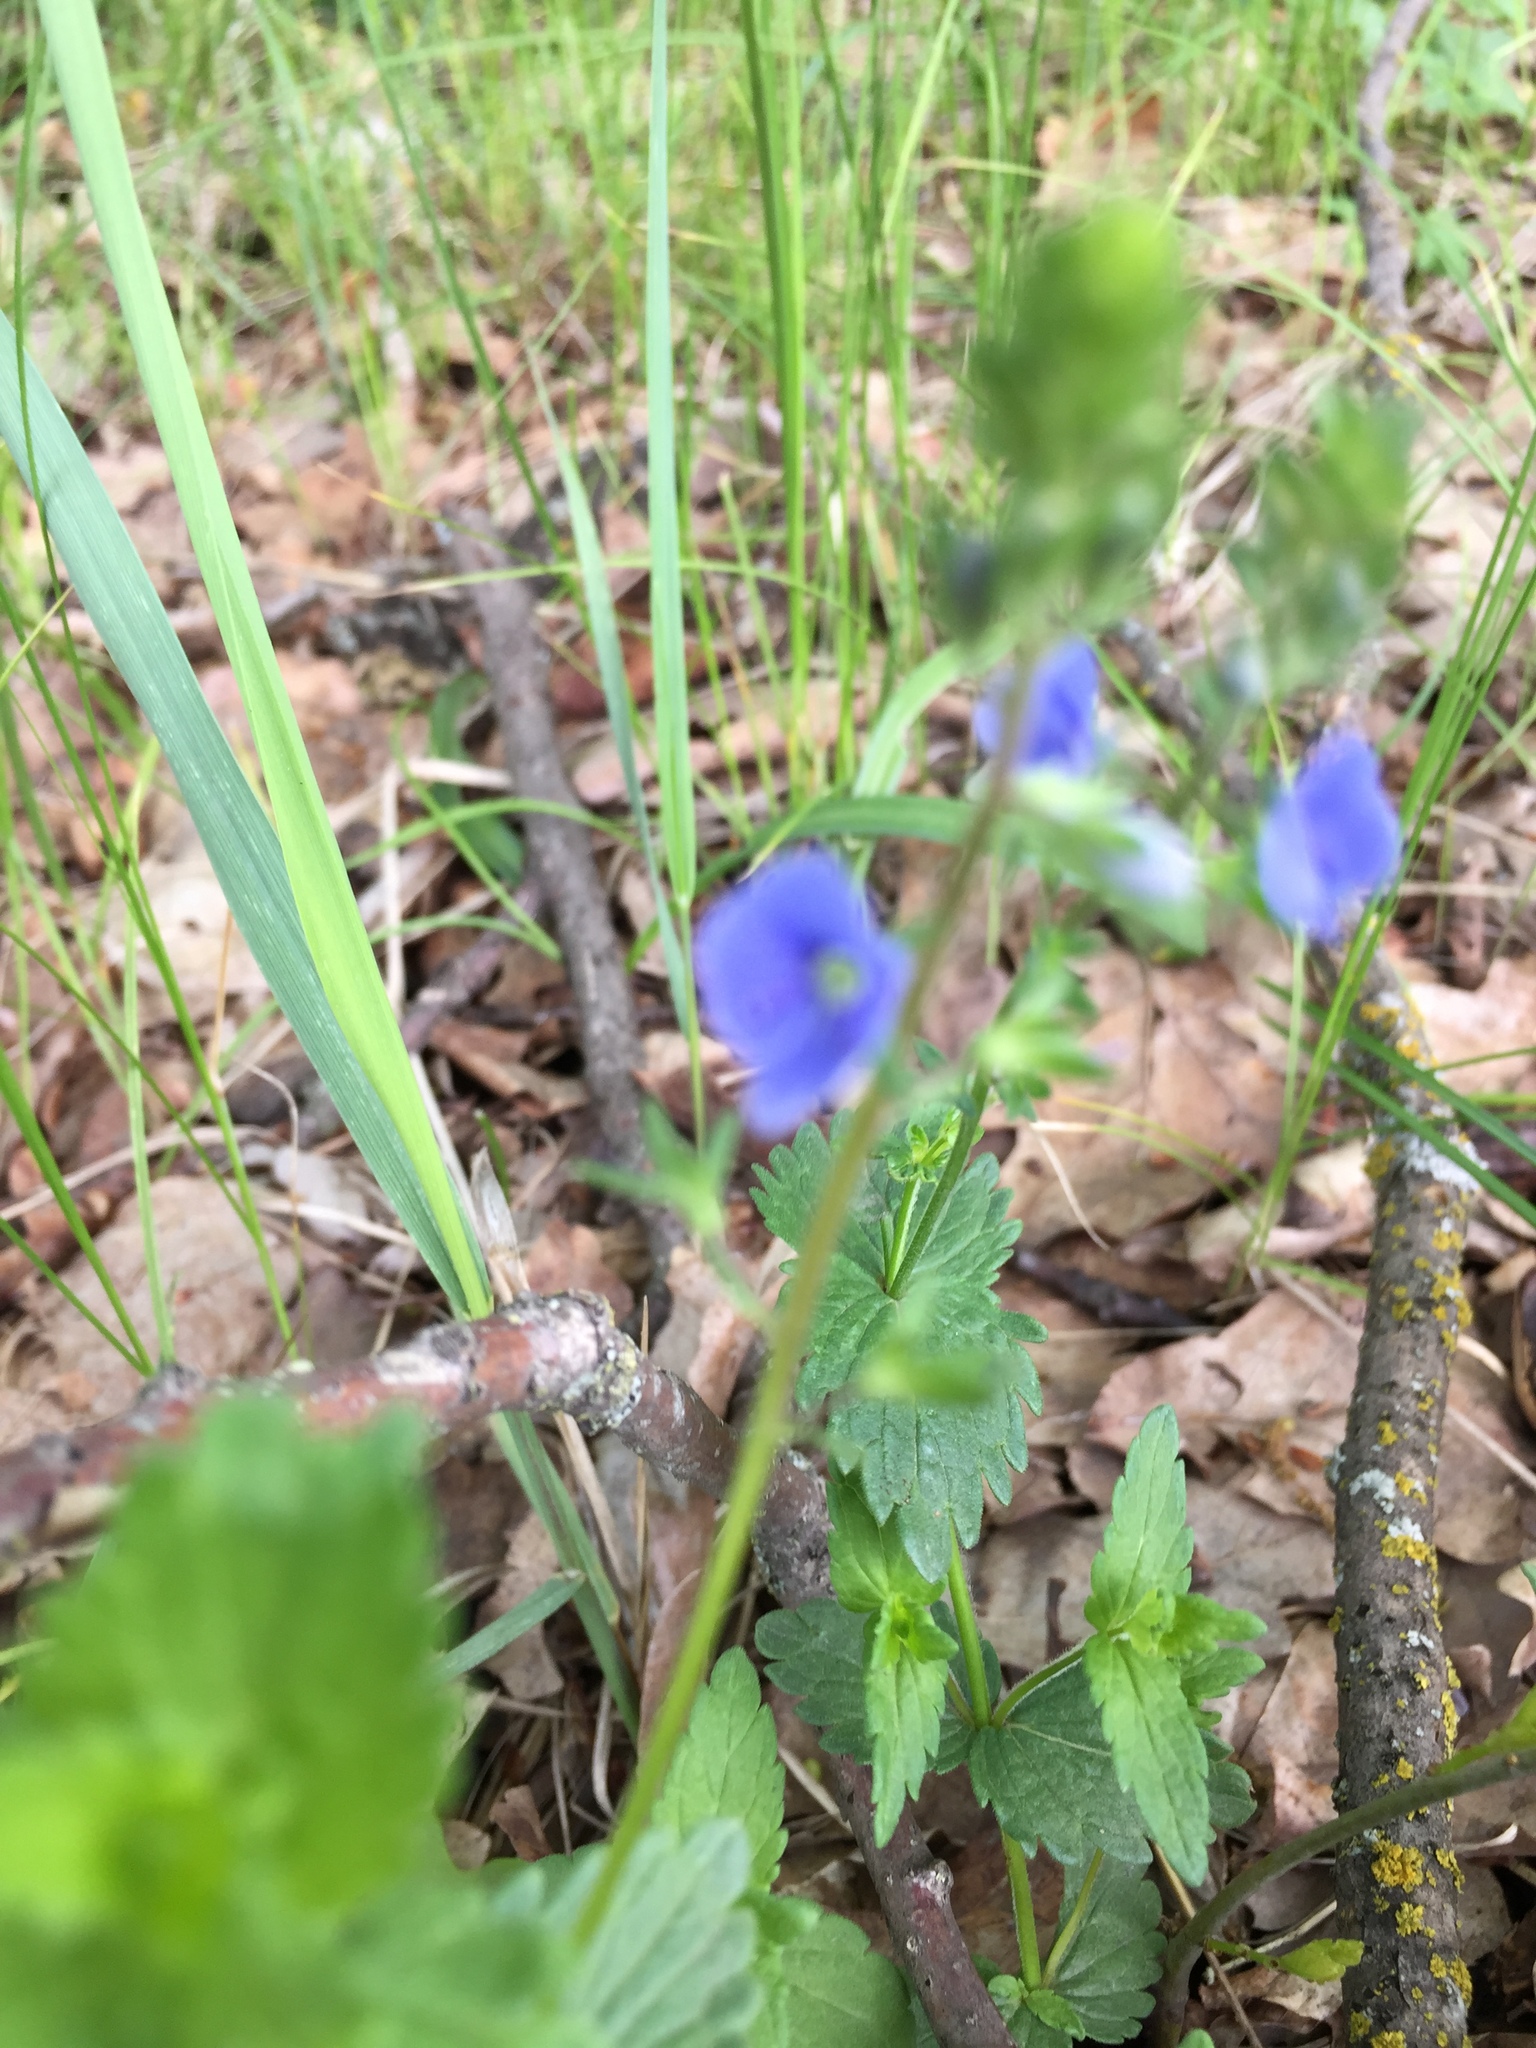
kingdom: Plantae
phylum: Tracheophyta
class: Magnoliopsida
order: Lamiales
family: Plantaginaceae
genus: Veronica
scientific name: Veronica chamaedrys
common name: Germander speedwell
